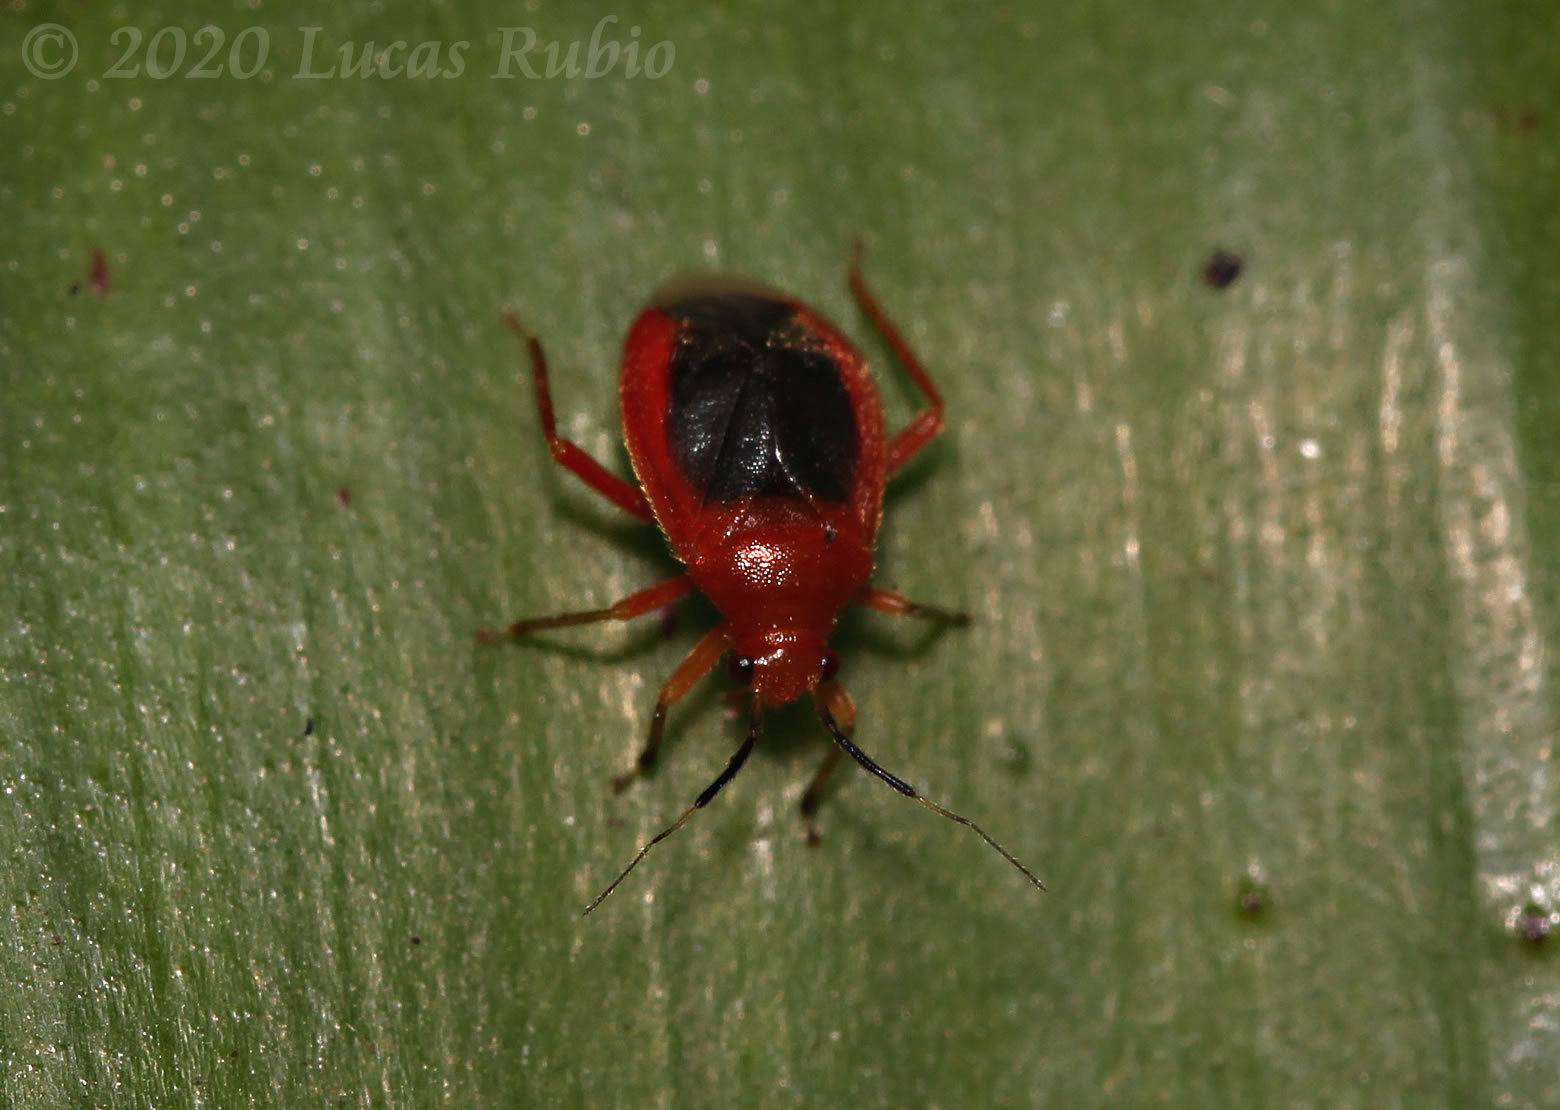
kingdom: Animalia
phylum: Arthropoda
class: Insecta
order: Hemiptera
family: Miridae
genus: Tenthecoris
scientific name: Tenthecoris bicolor
